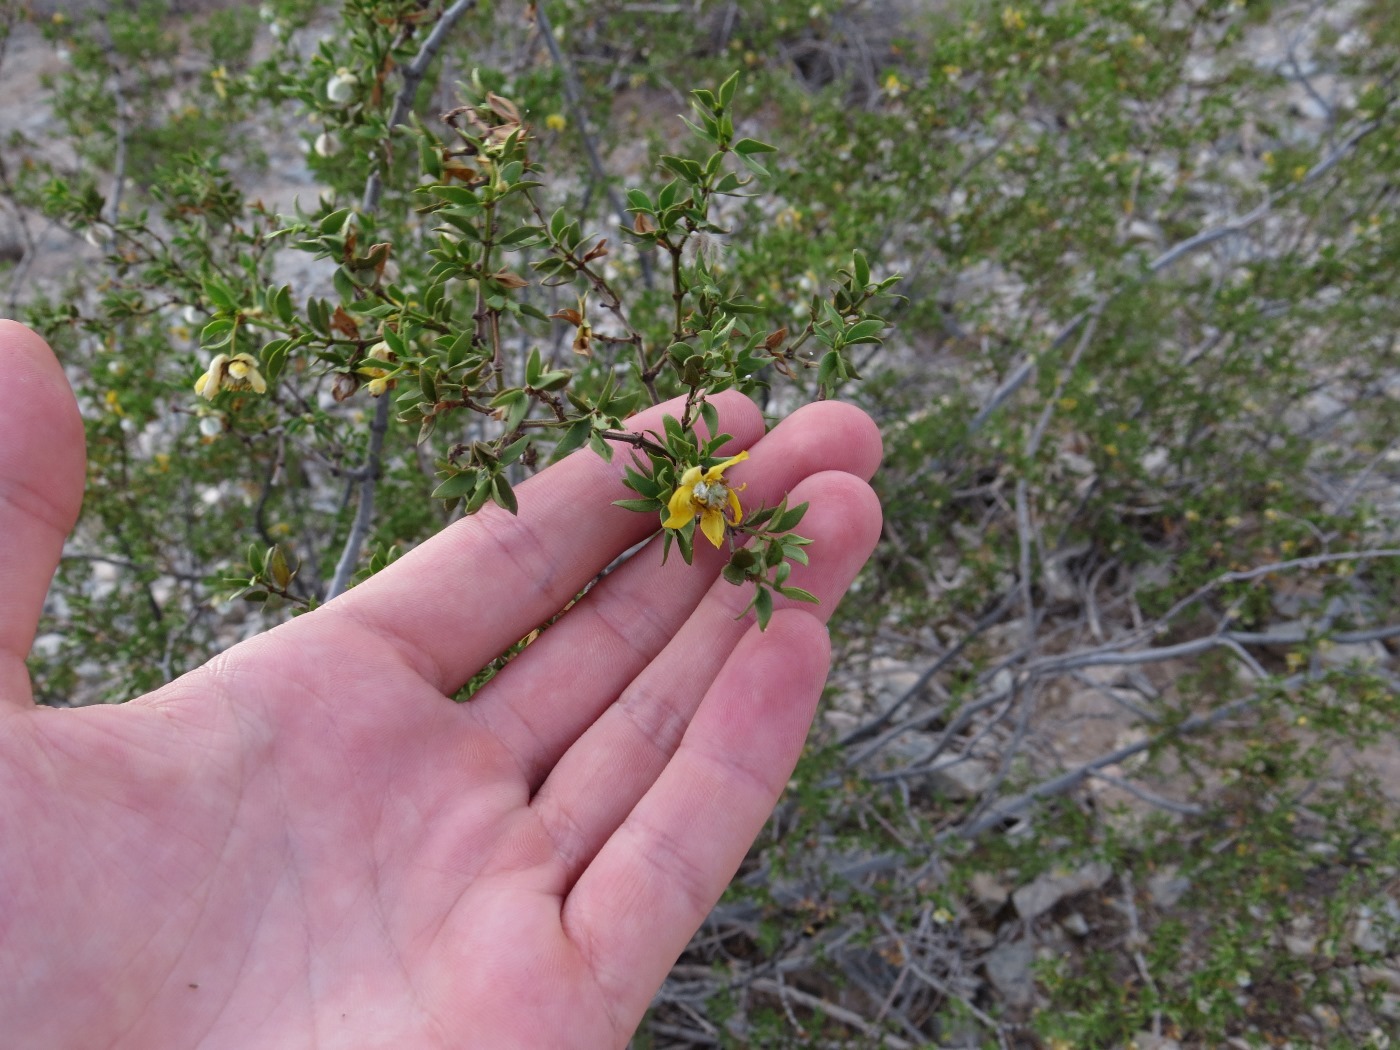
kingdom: Plantae
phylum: Tracheophyta
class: Magnoliopsida
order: Zygophyllales
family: Zygophyllaceae
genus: Larrea
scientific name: Larrea tridentata
